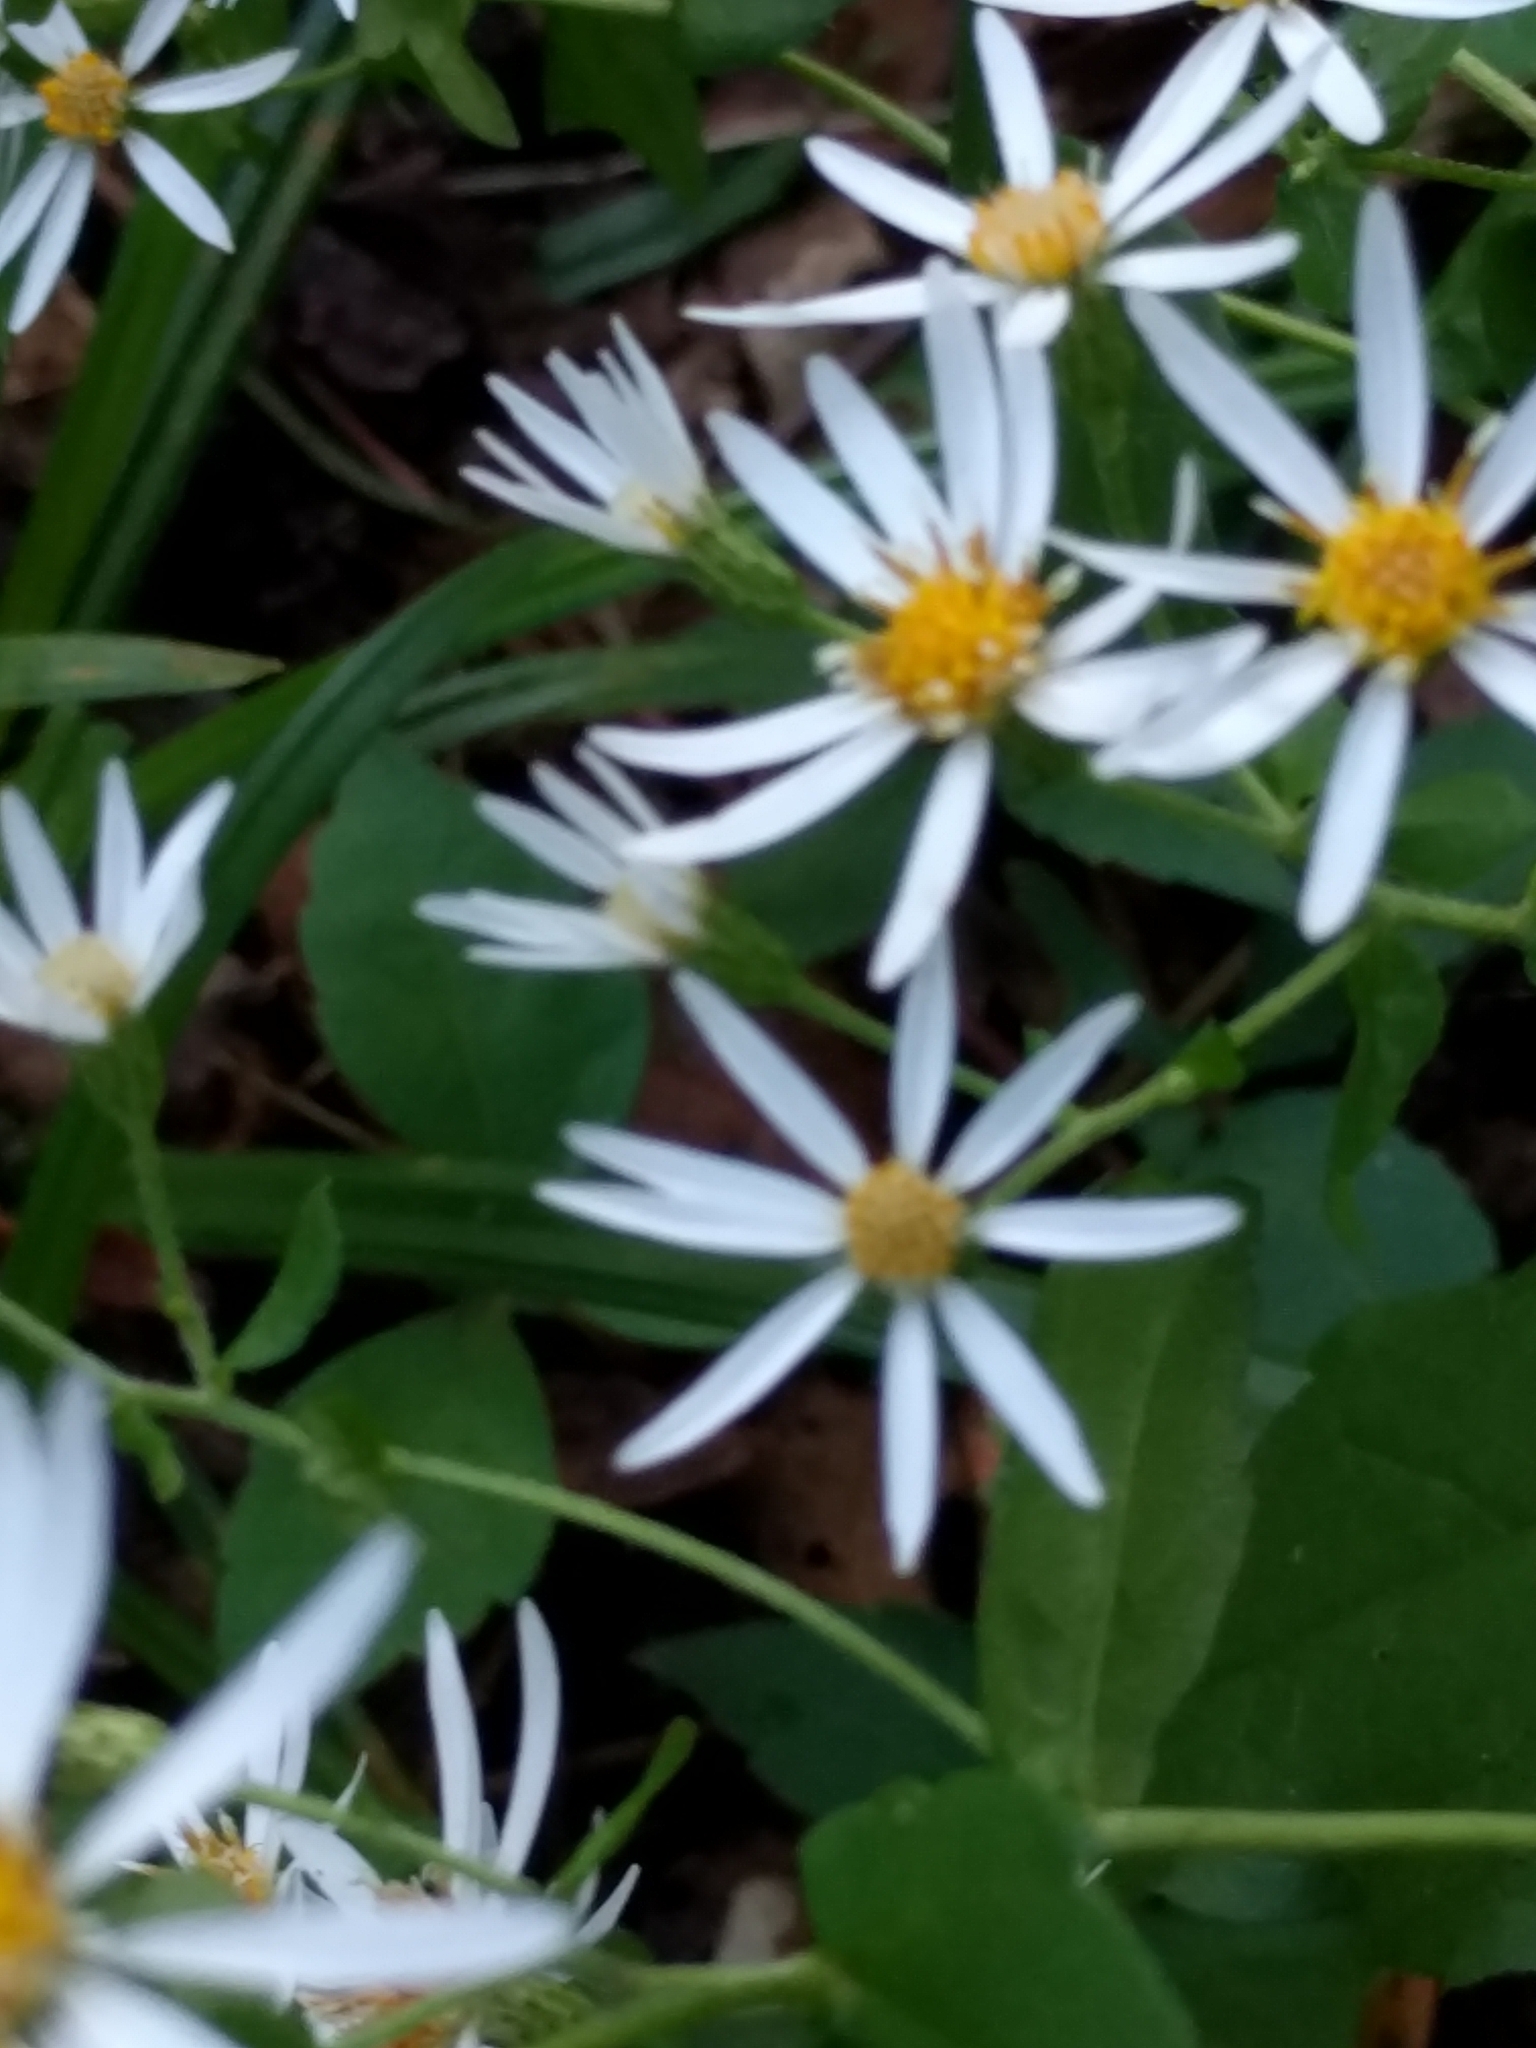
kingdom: Plantae
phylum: Tracheophyta
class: Magnoliopsida
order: Asterales
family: Asteraceae
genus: Eurybia
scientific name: Eurybia divaricata
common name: White wood aster
